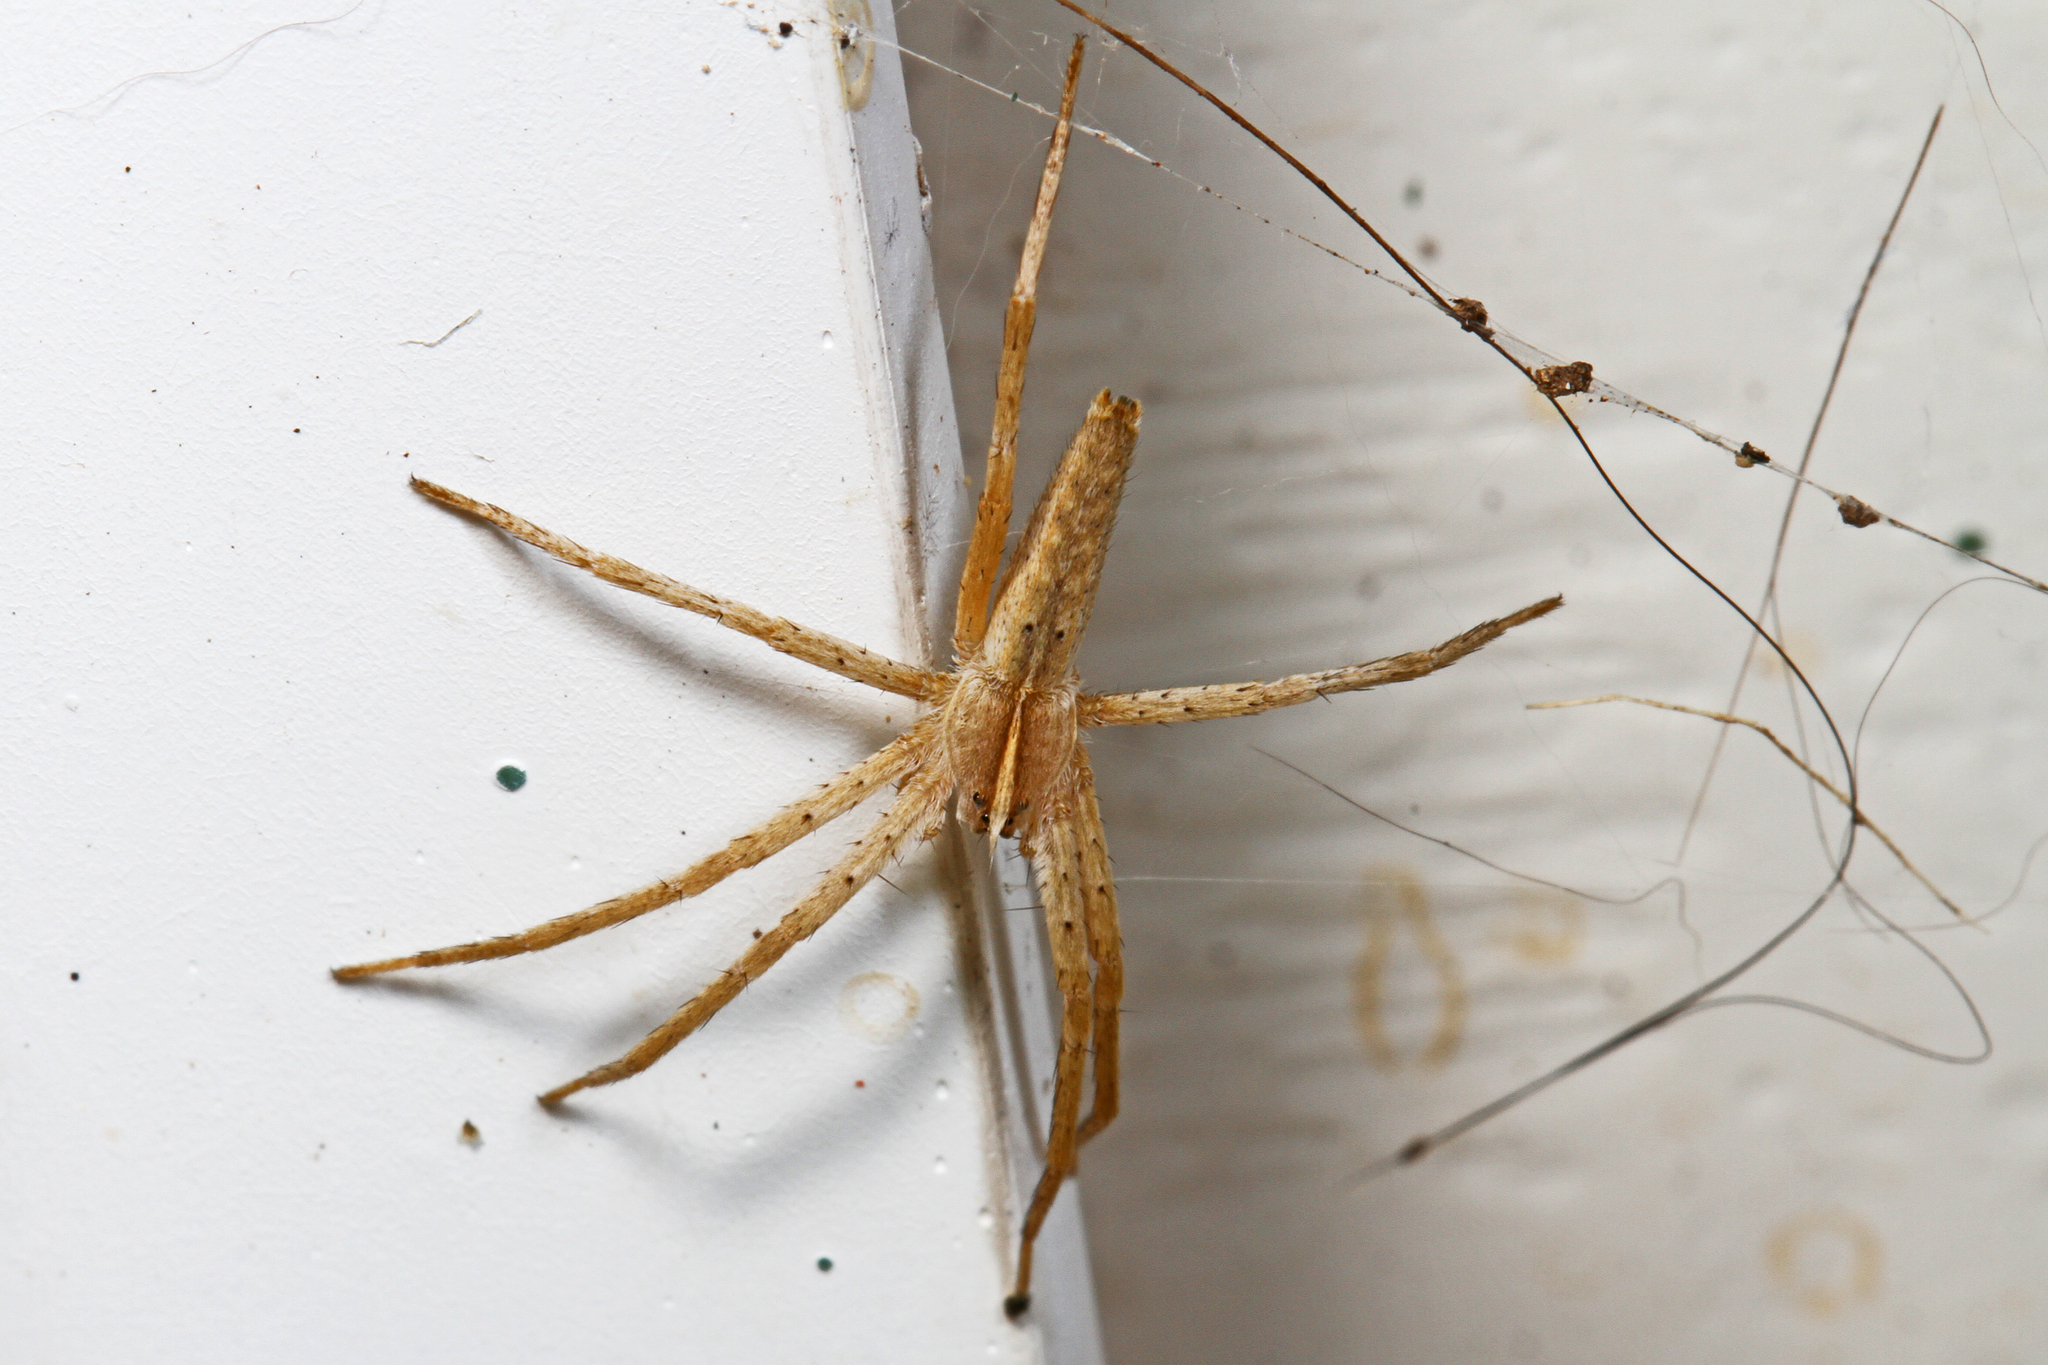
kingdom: Animalia
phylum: Arthropoda
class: Arachnida
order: Araneae
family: Pisauridae
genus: Pisaurina
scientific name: Pisaurina dubia
